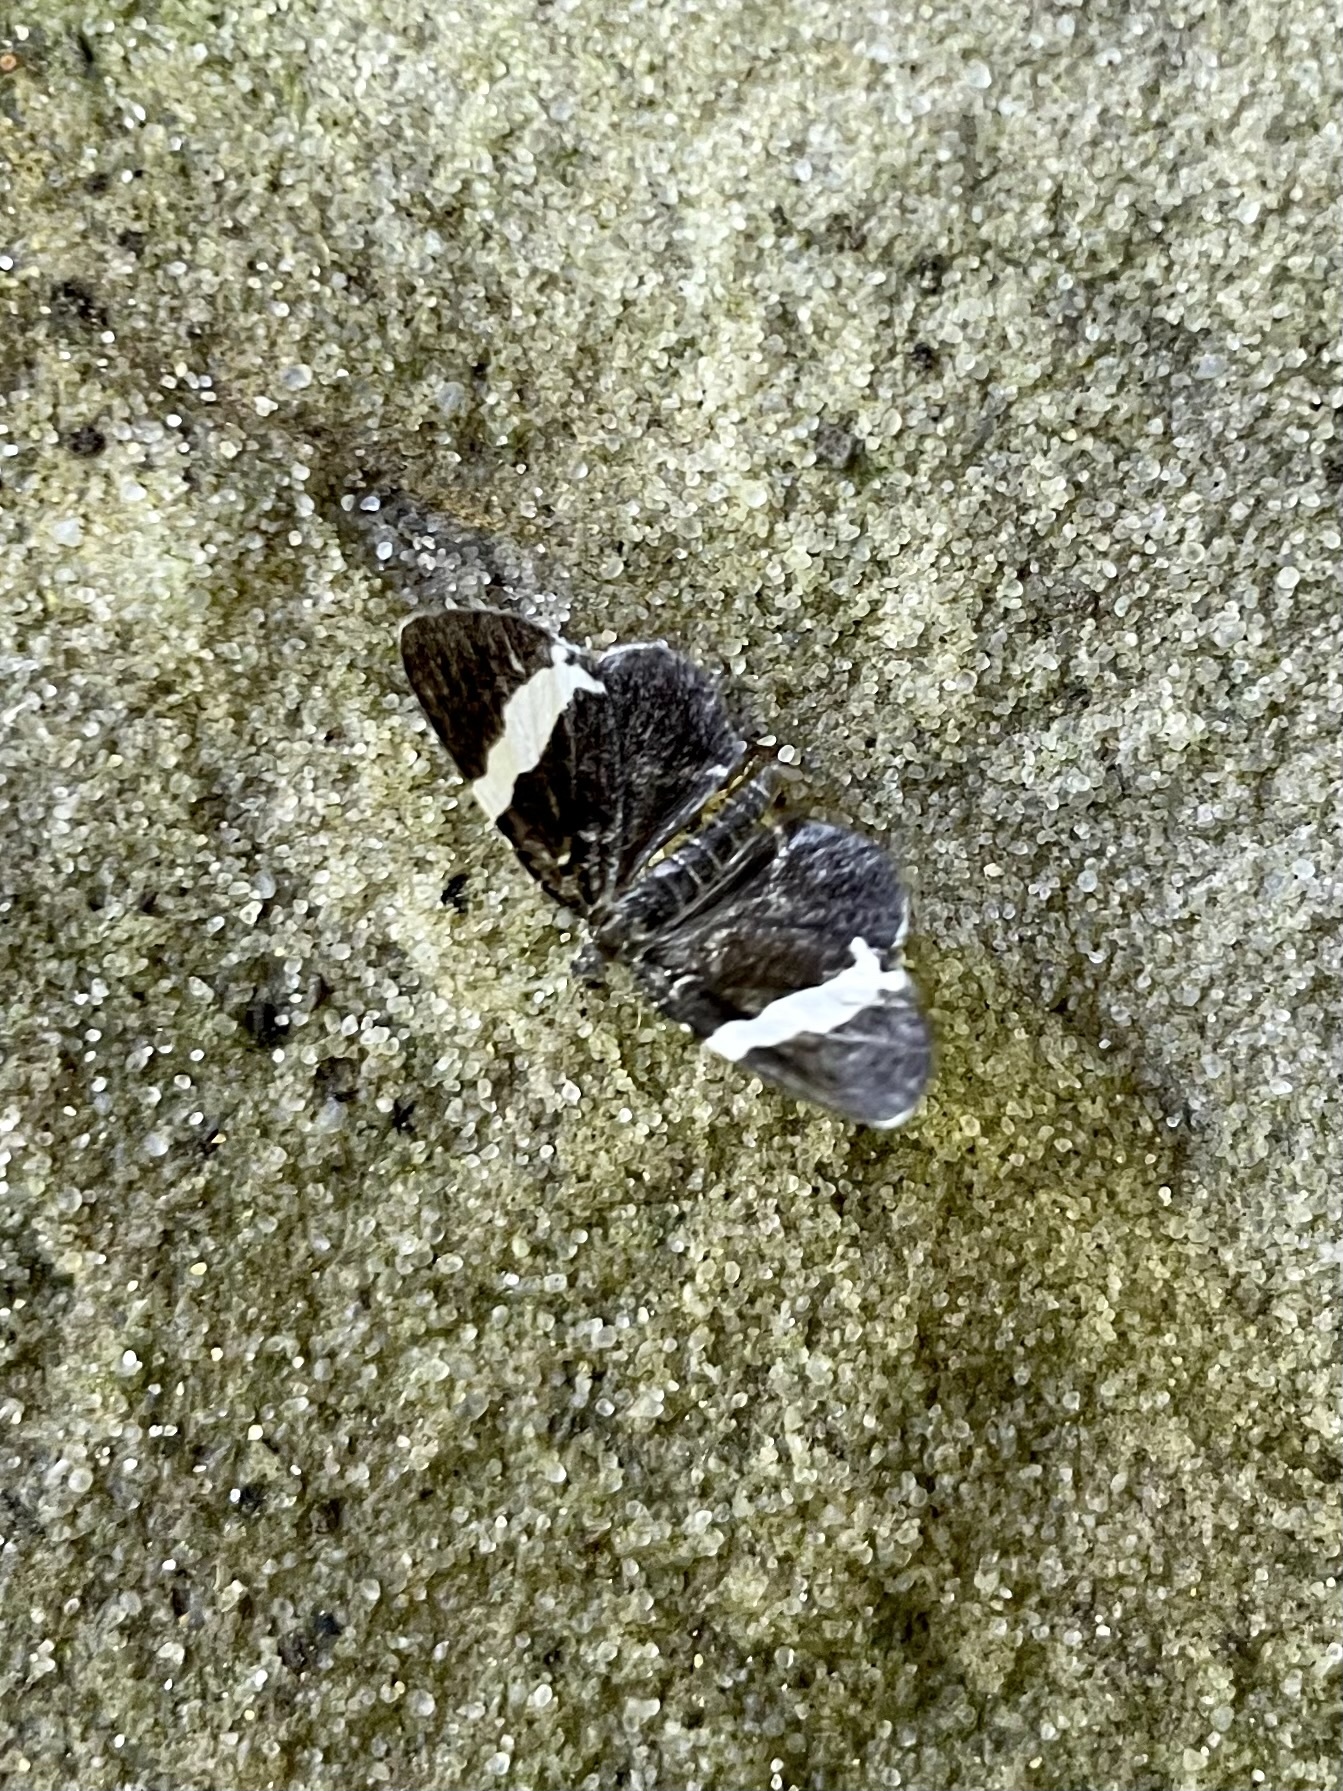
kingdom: Animalia
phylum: Arthropoda
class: Insecta
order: Lepidoptera
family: Geometridae
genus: Trichodezia
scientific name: Trichodezia albovittata
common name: White striped black
